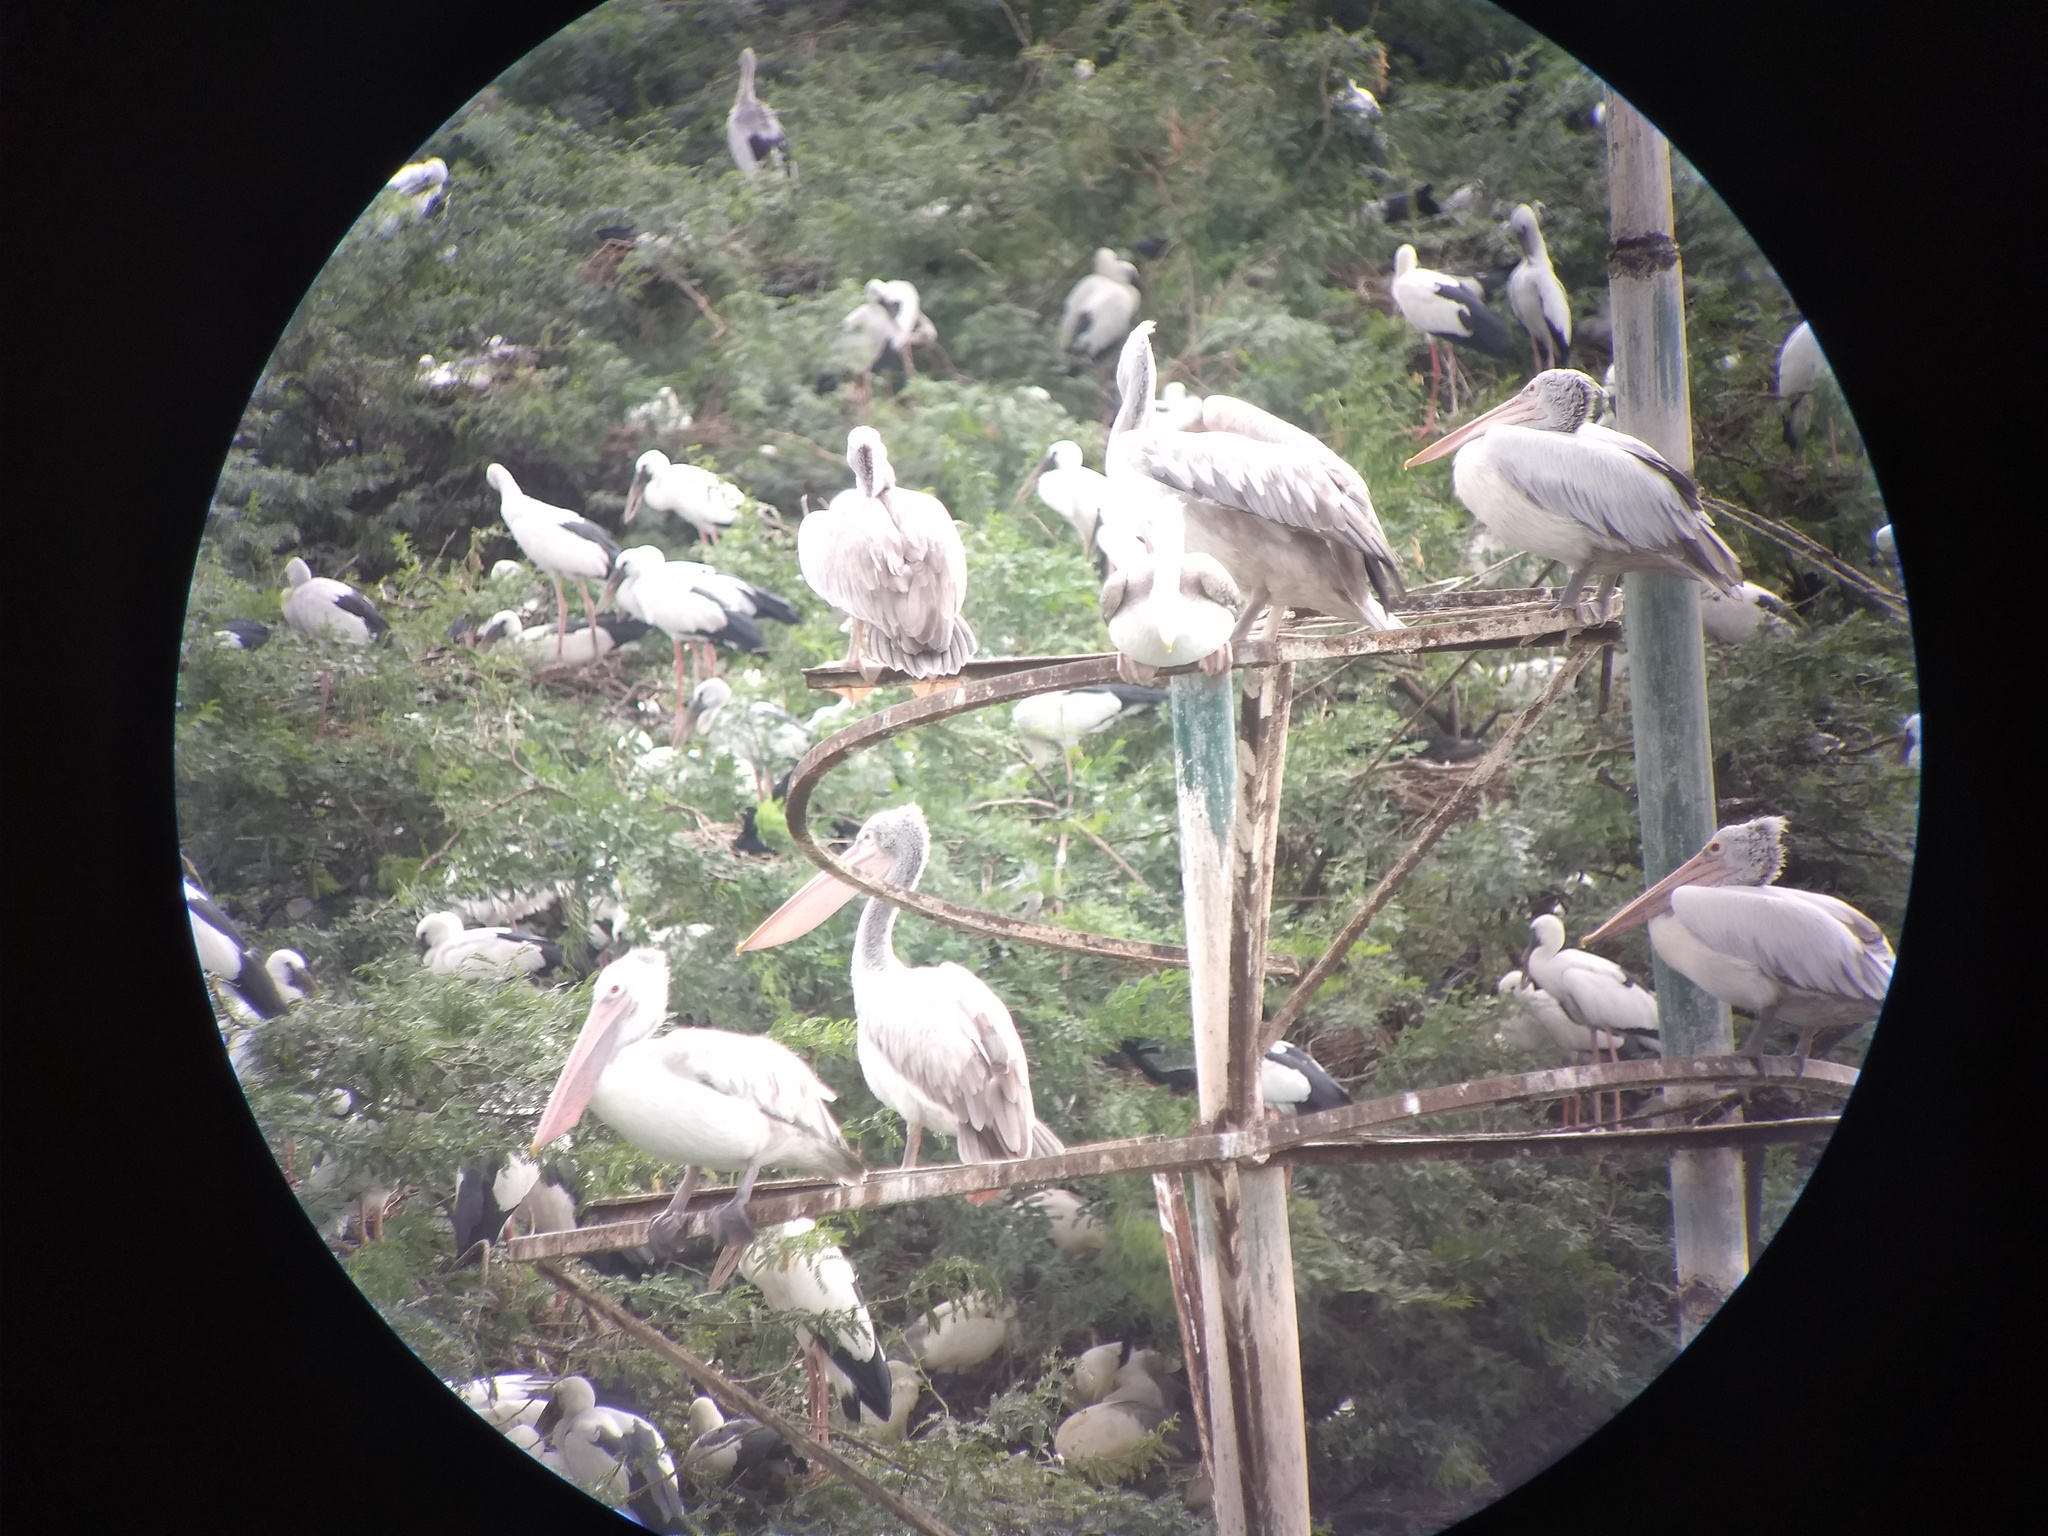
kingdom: Animalia
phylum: Chordata
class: Aves
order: Pelecaniformes
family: Pelecanidae
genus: Pelecanus
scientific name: Pelecanus philippensis
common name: Spot-billed pelican
